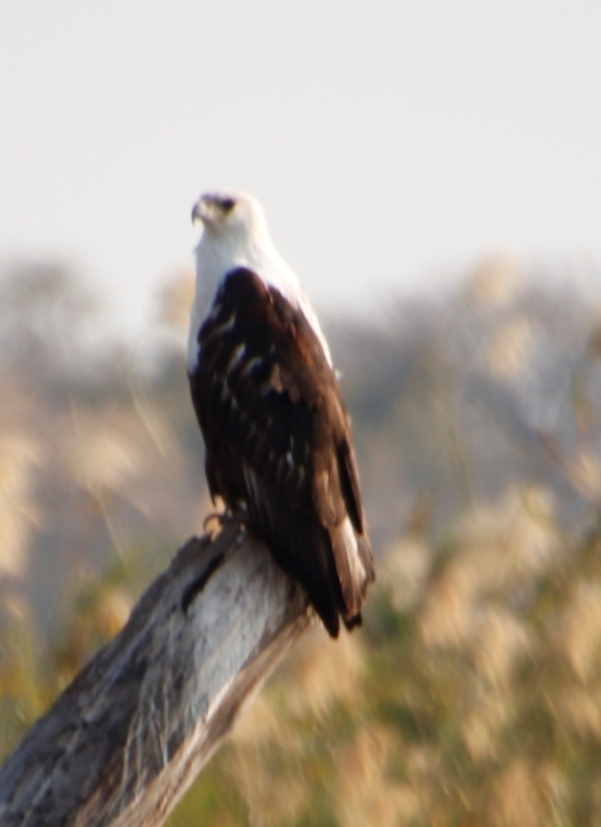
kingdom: Animalia
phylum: Chordata
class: Aves
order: Accipitriformes
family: Accipitridae
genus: Haliaeetus
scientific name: Haliaeetus vocifer
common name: African fish eagle
